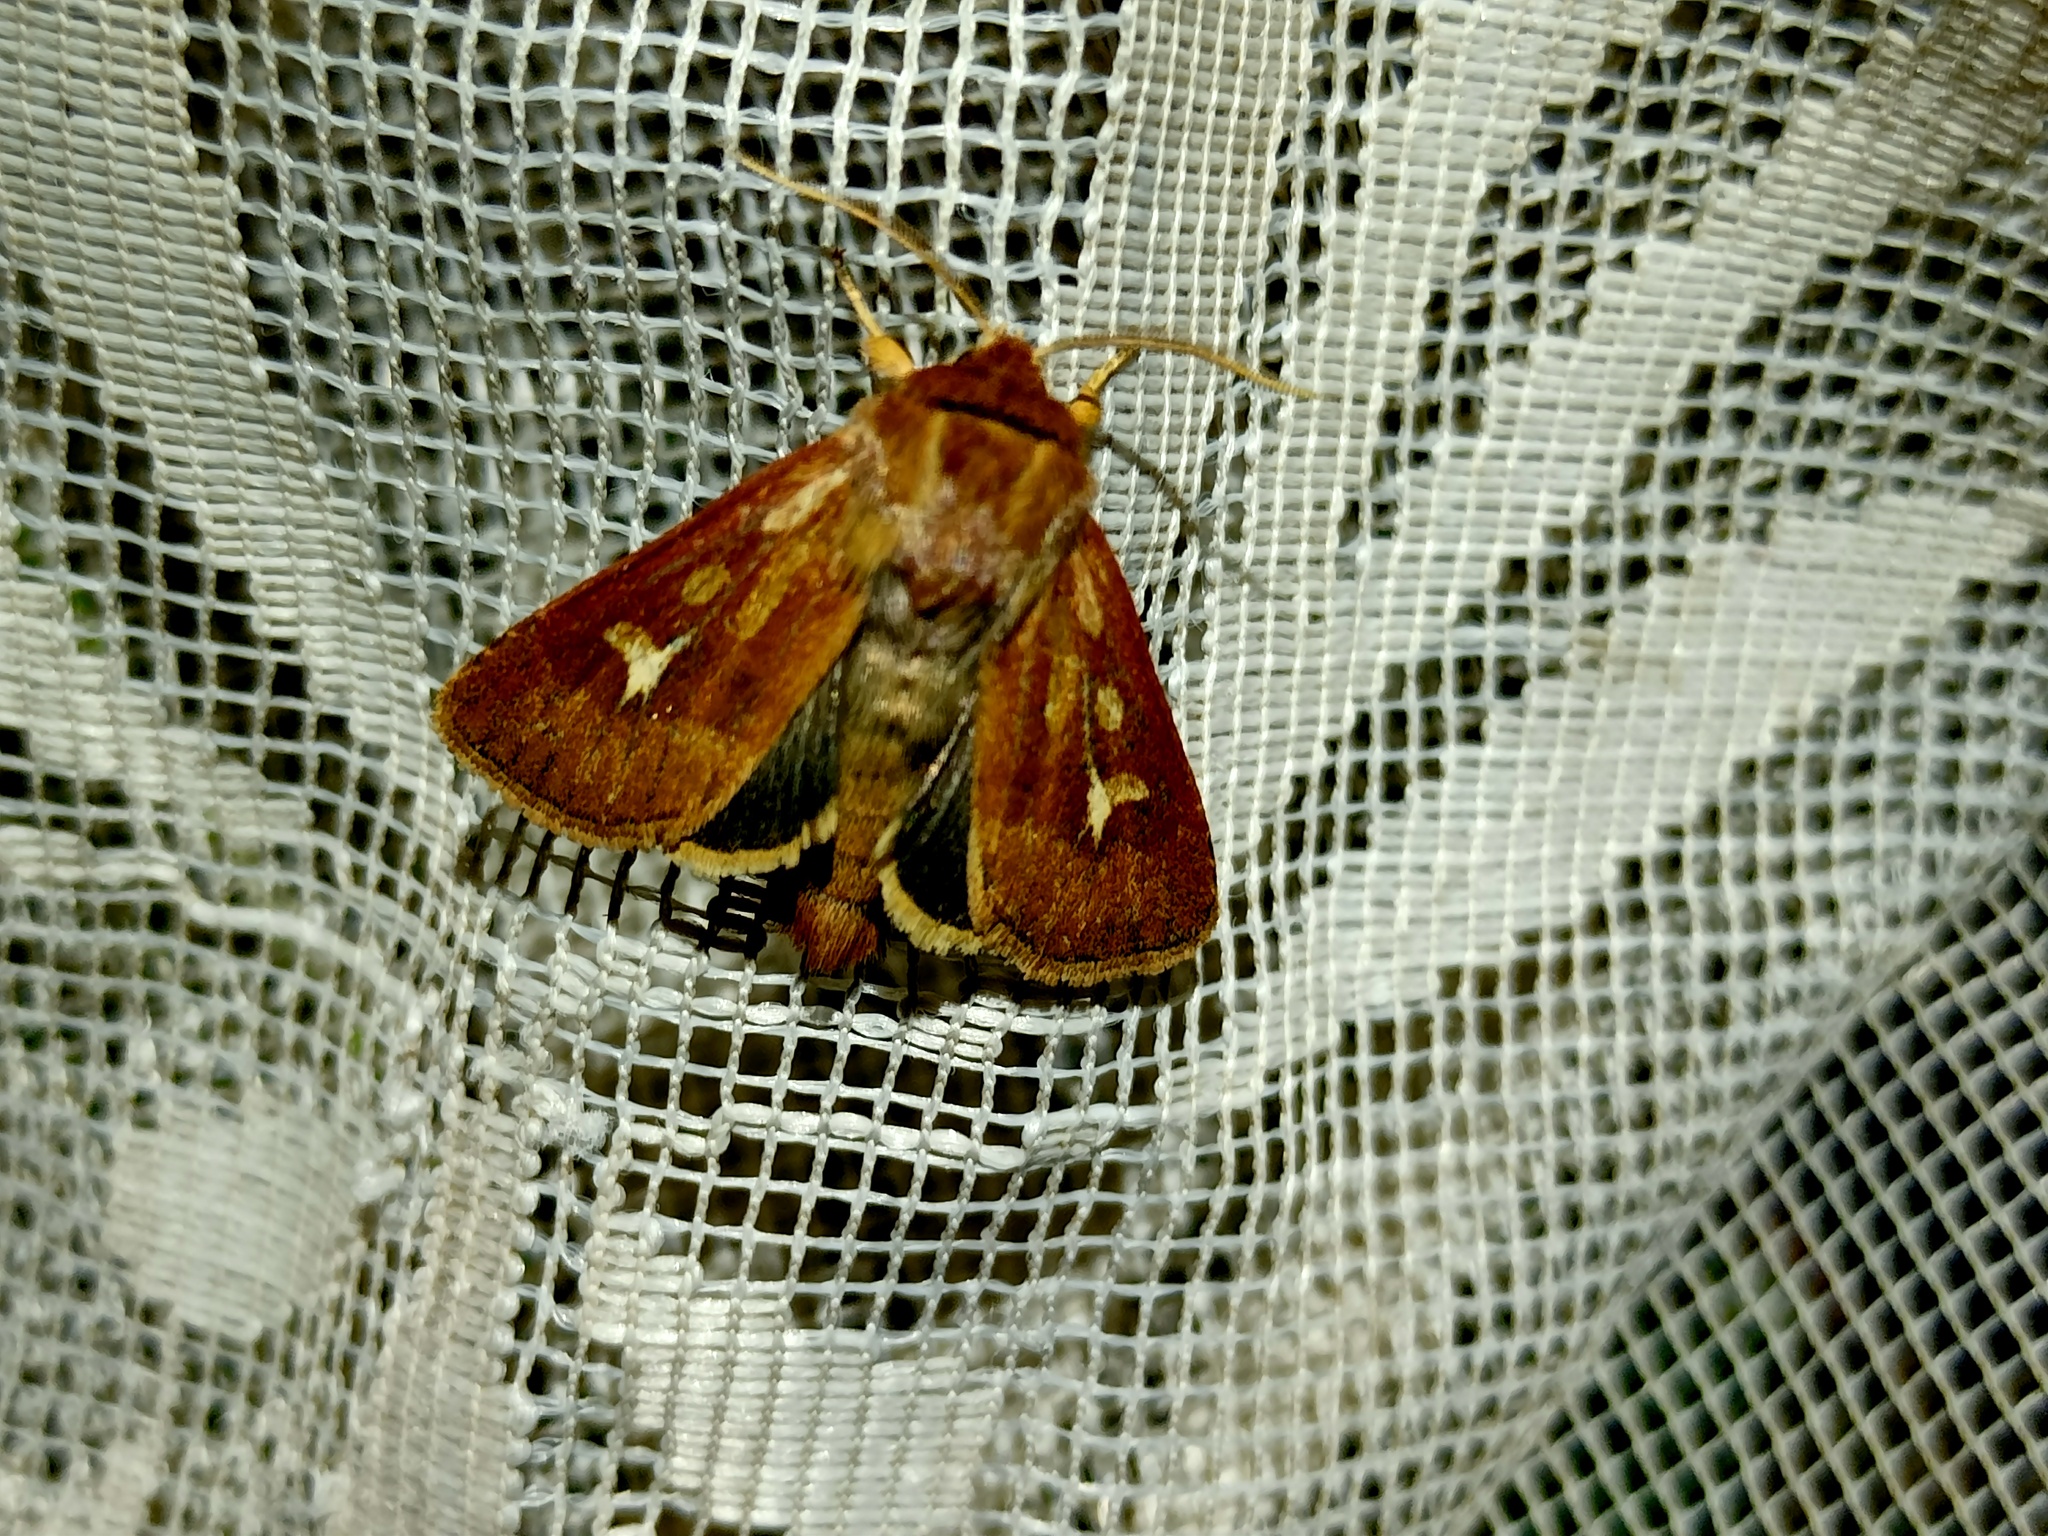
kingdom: Animalia
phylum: Arthropoda
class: Insecta
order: Lepidoptera
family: Noctuidae
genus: Cerapteryx
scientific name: Cerapteryx graminis
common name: Antler moth
